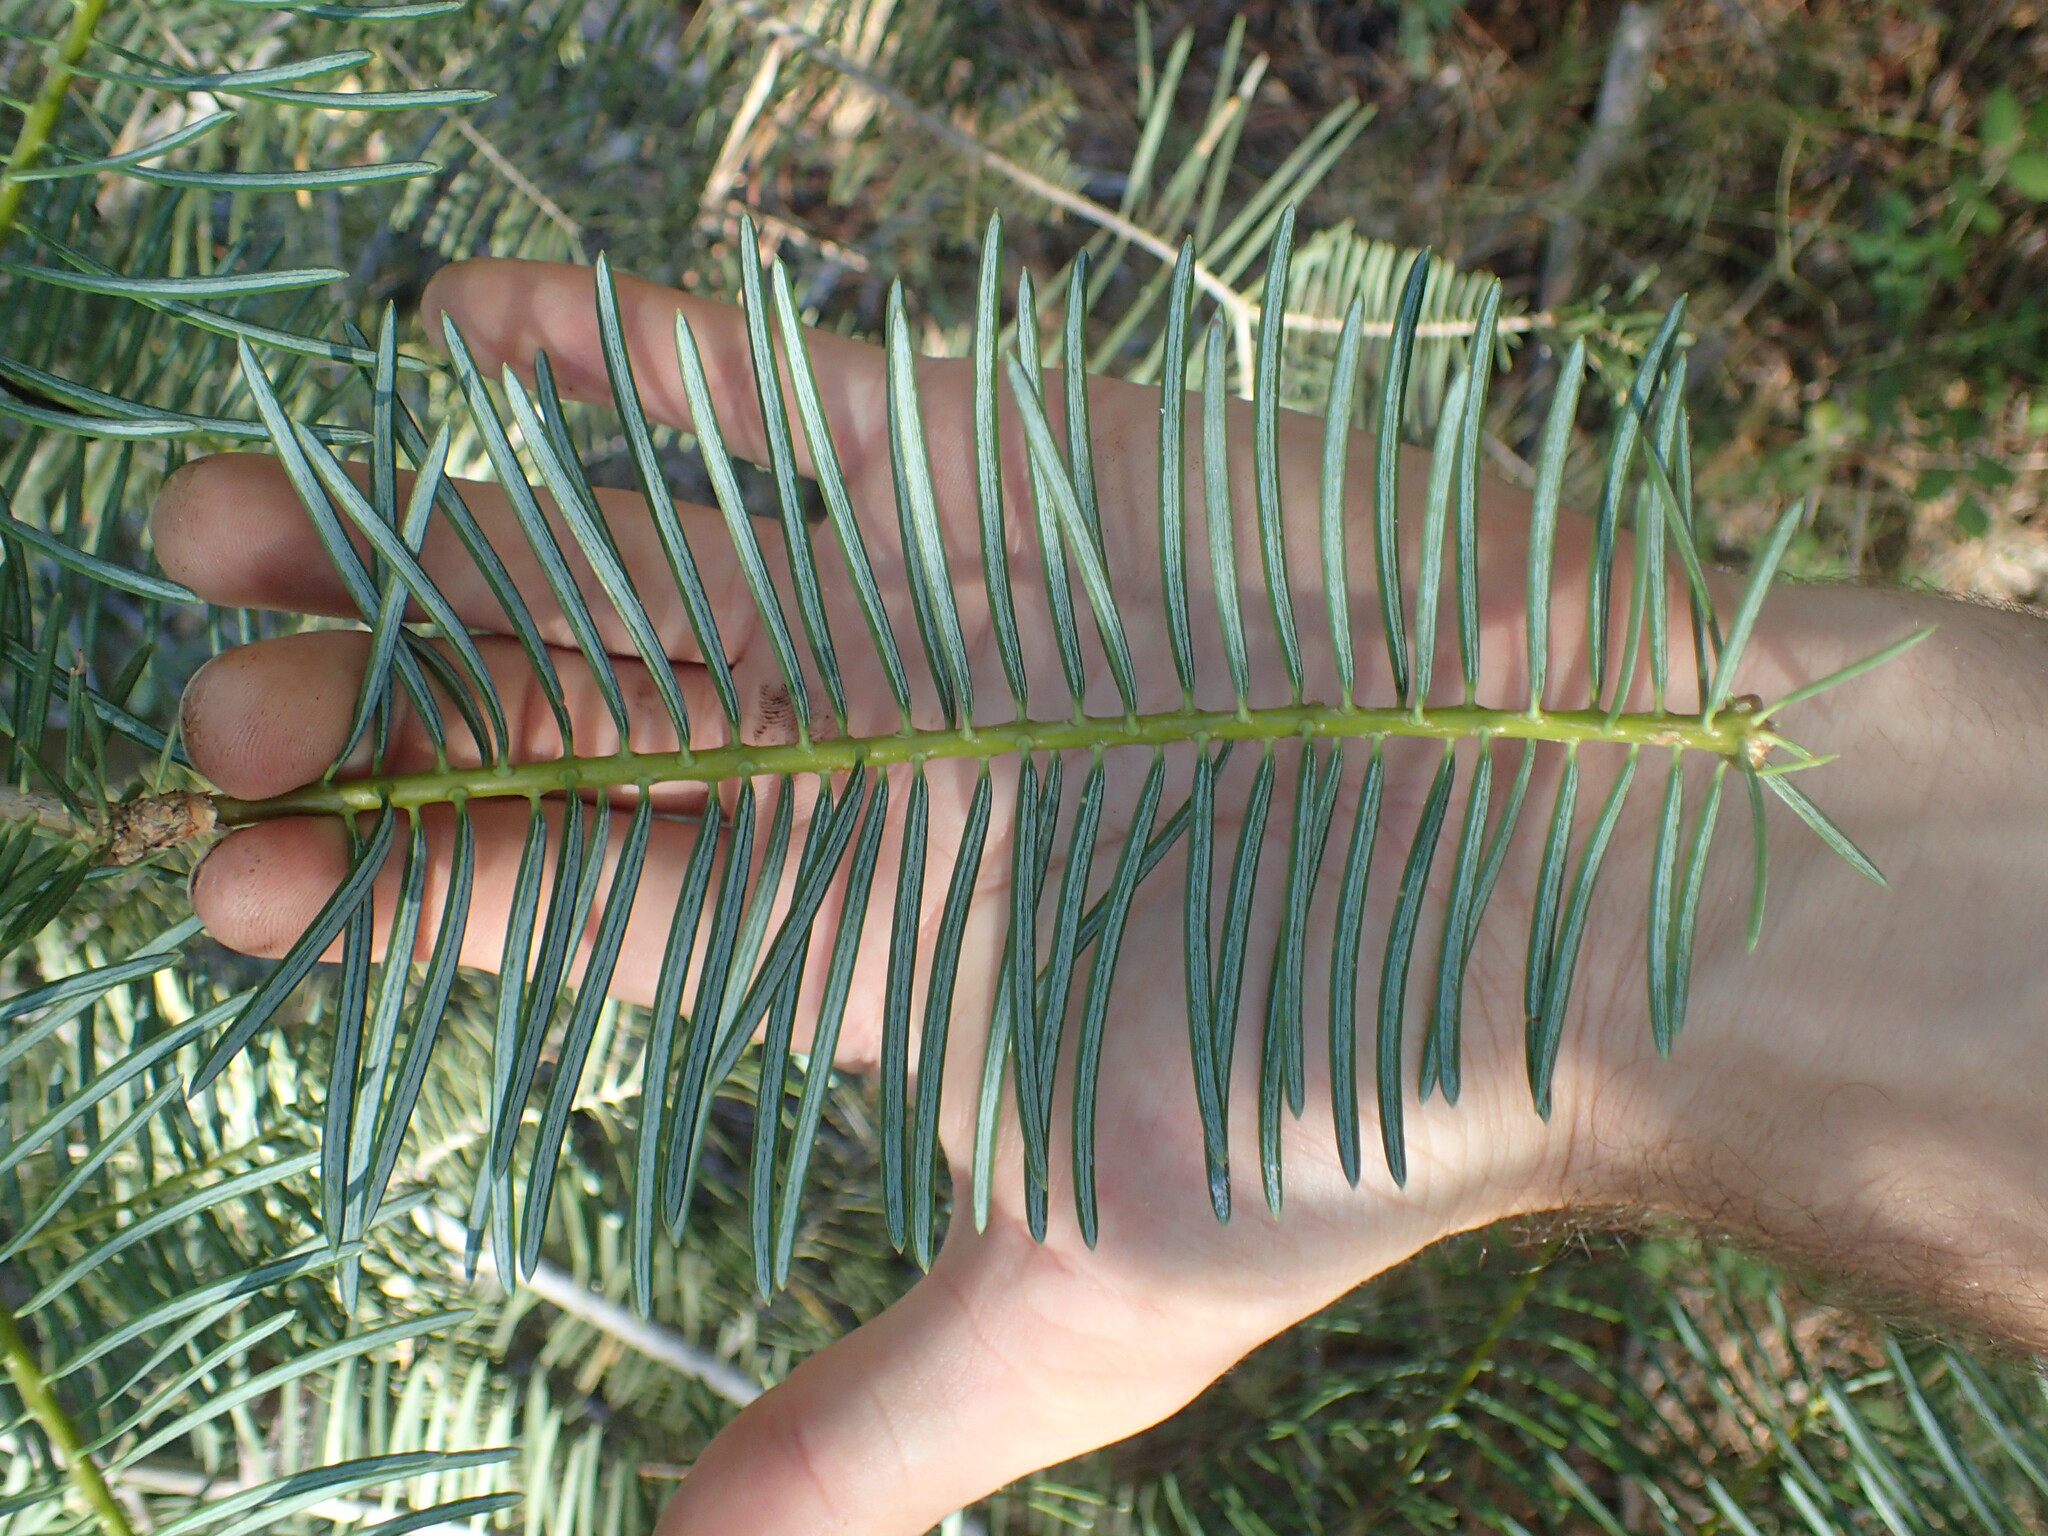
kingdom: Plantae
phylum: Tracheophyta
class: Pinopsida
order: Pinales
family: Pinaceae
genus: Abies
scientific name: Abies concolor
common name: Colorado fir
